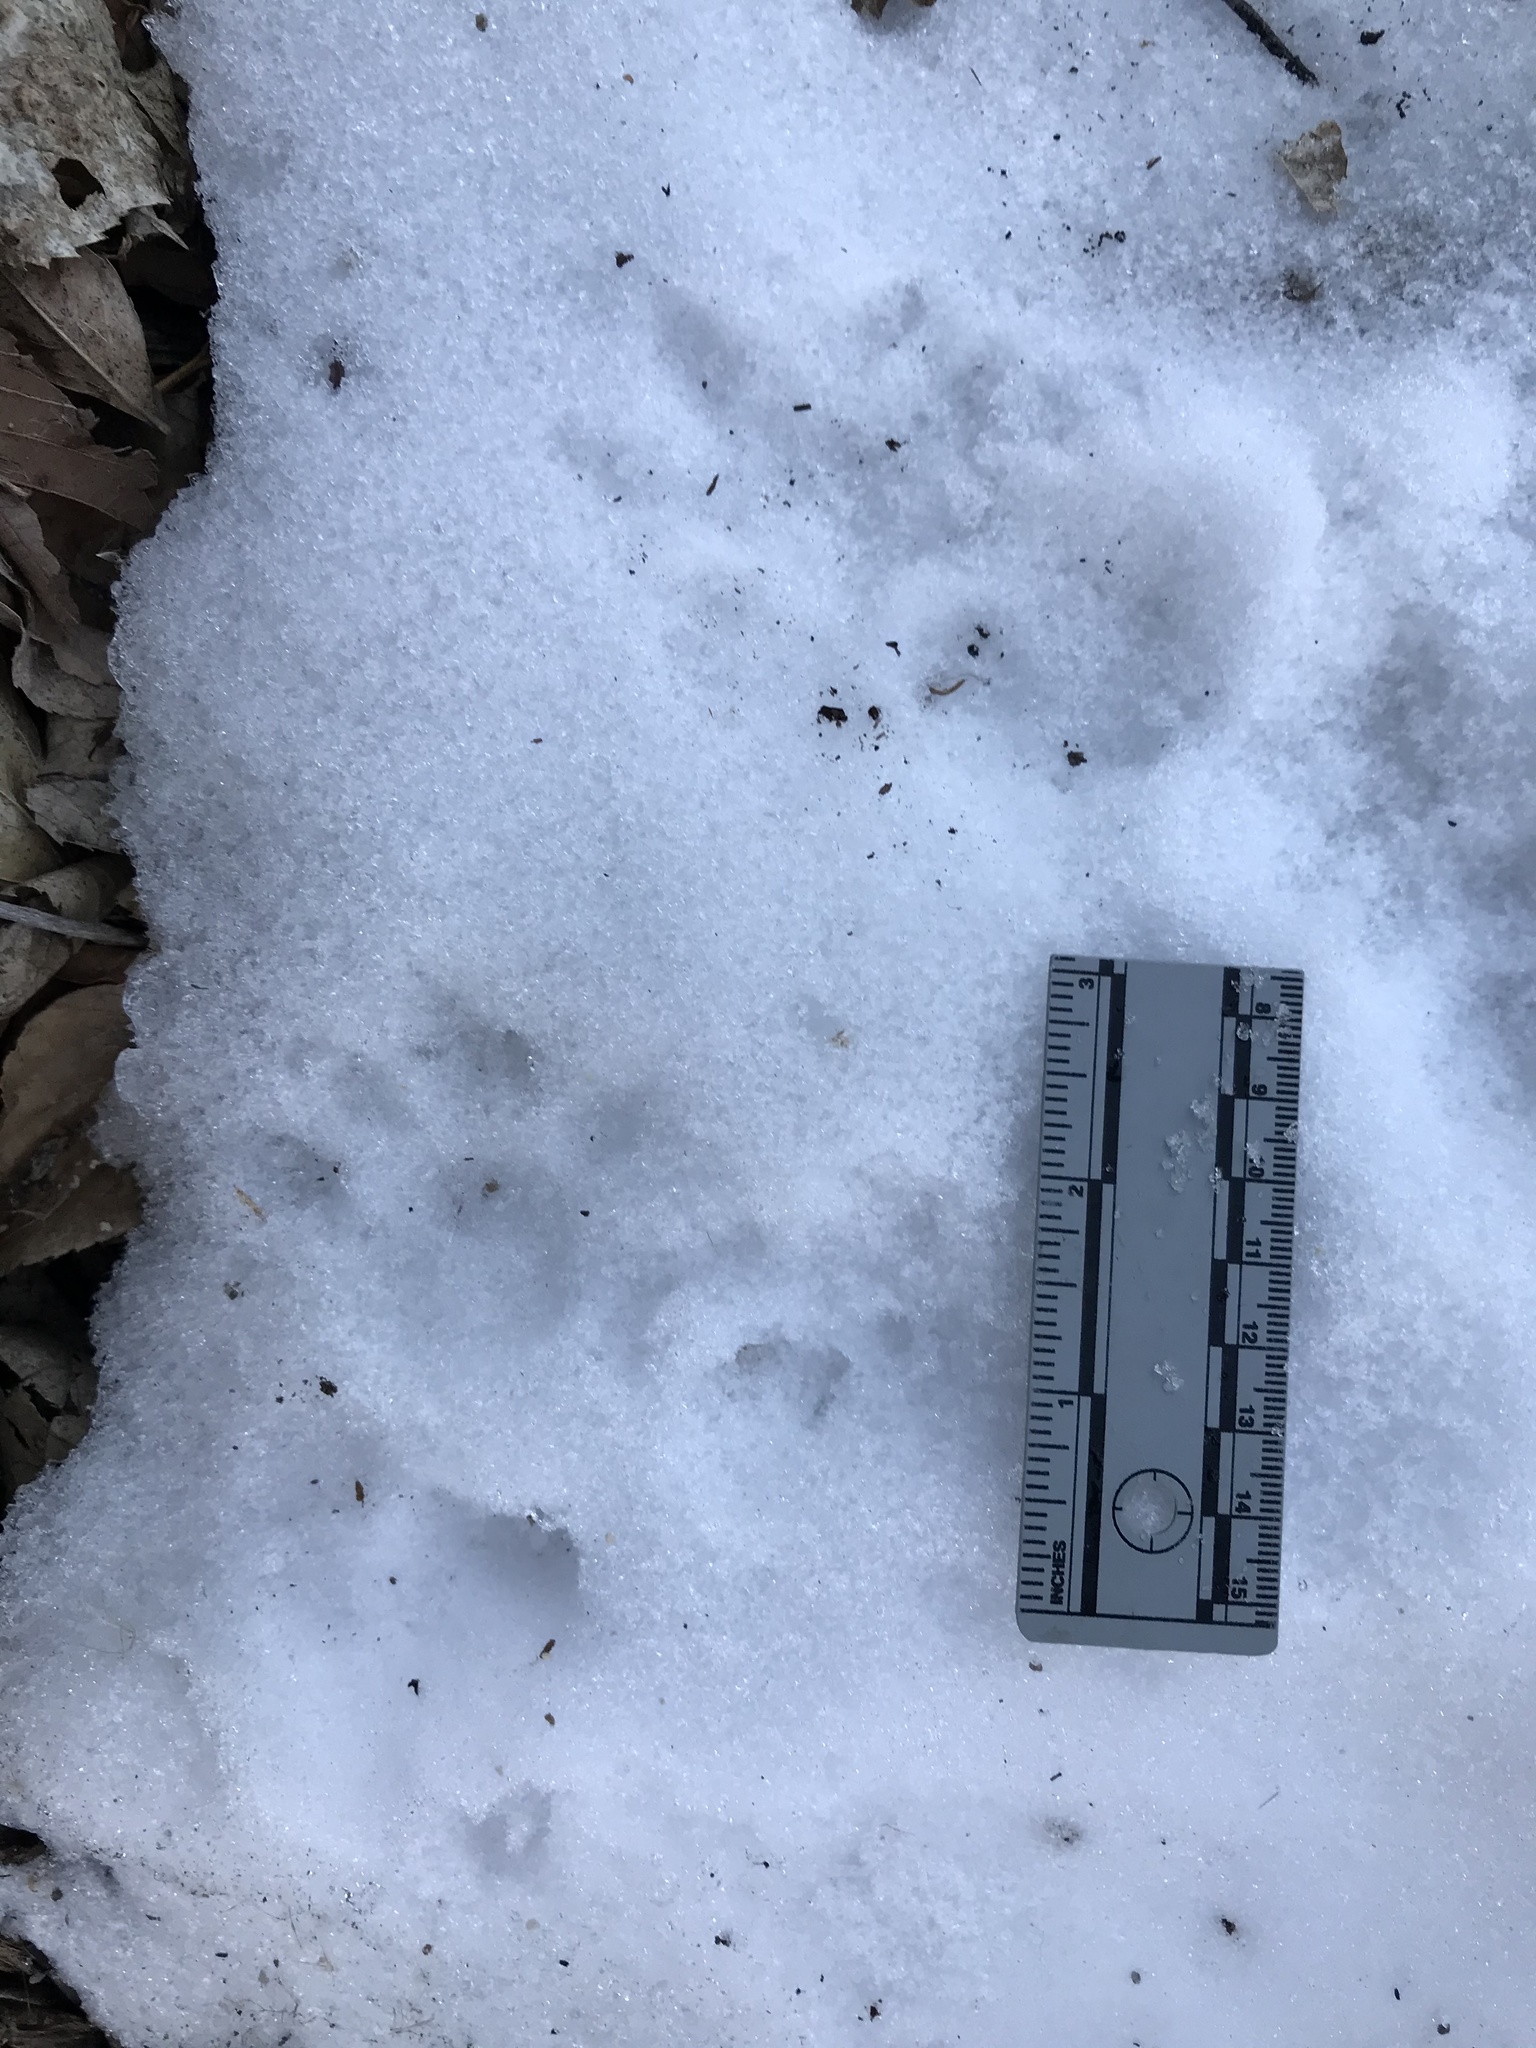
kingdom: Animalia
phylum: Chordata
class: Mammalia
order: Didelphimorphia
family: Didelphidae
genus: Didelphis
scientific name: Didelphis virginiana
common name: Virginia opossum
